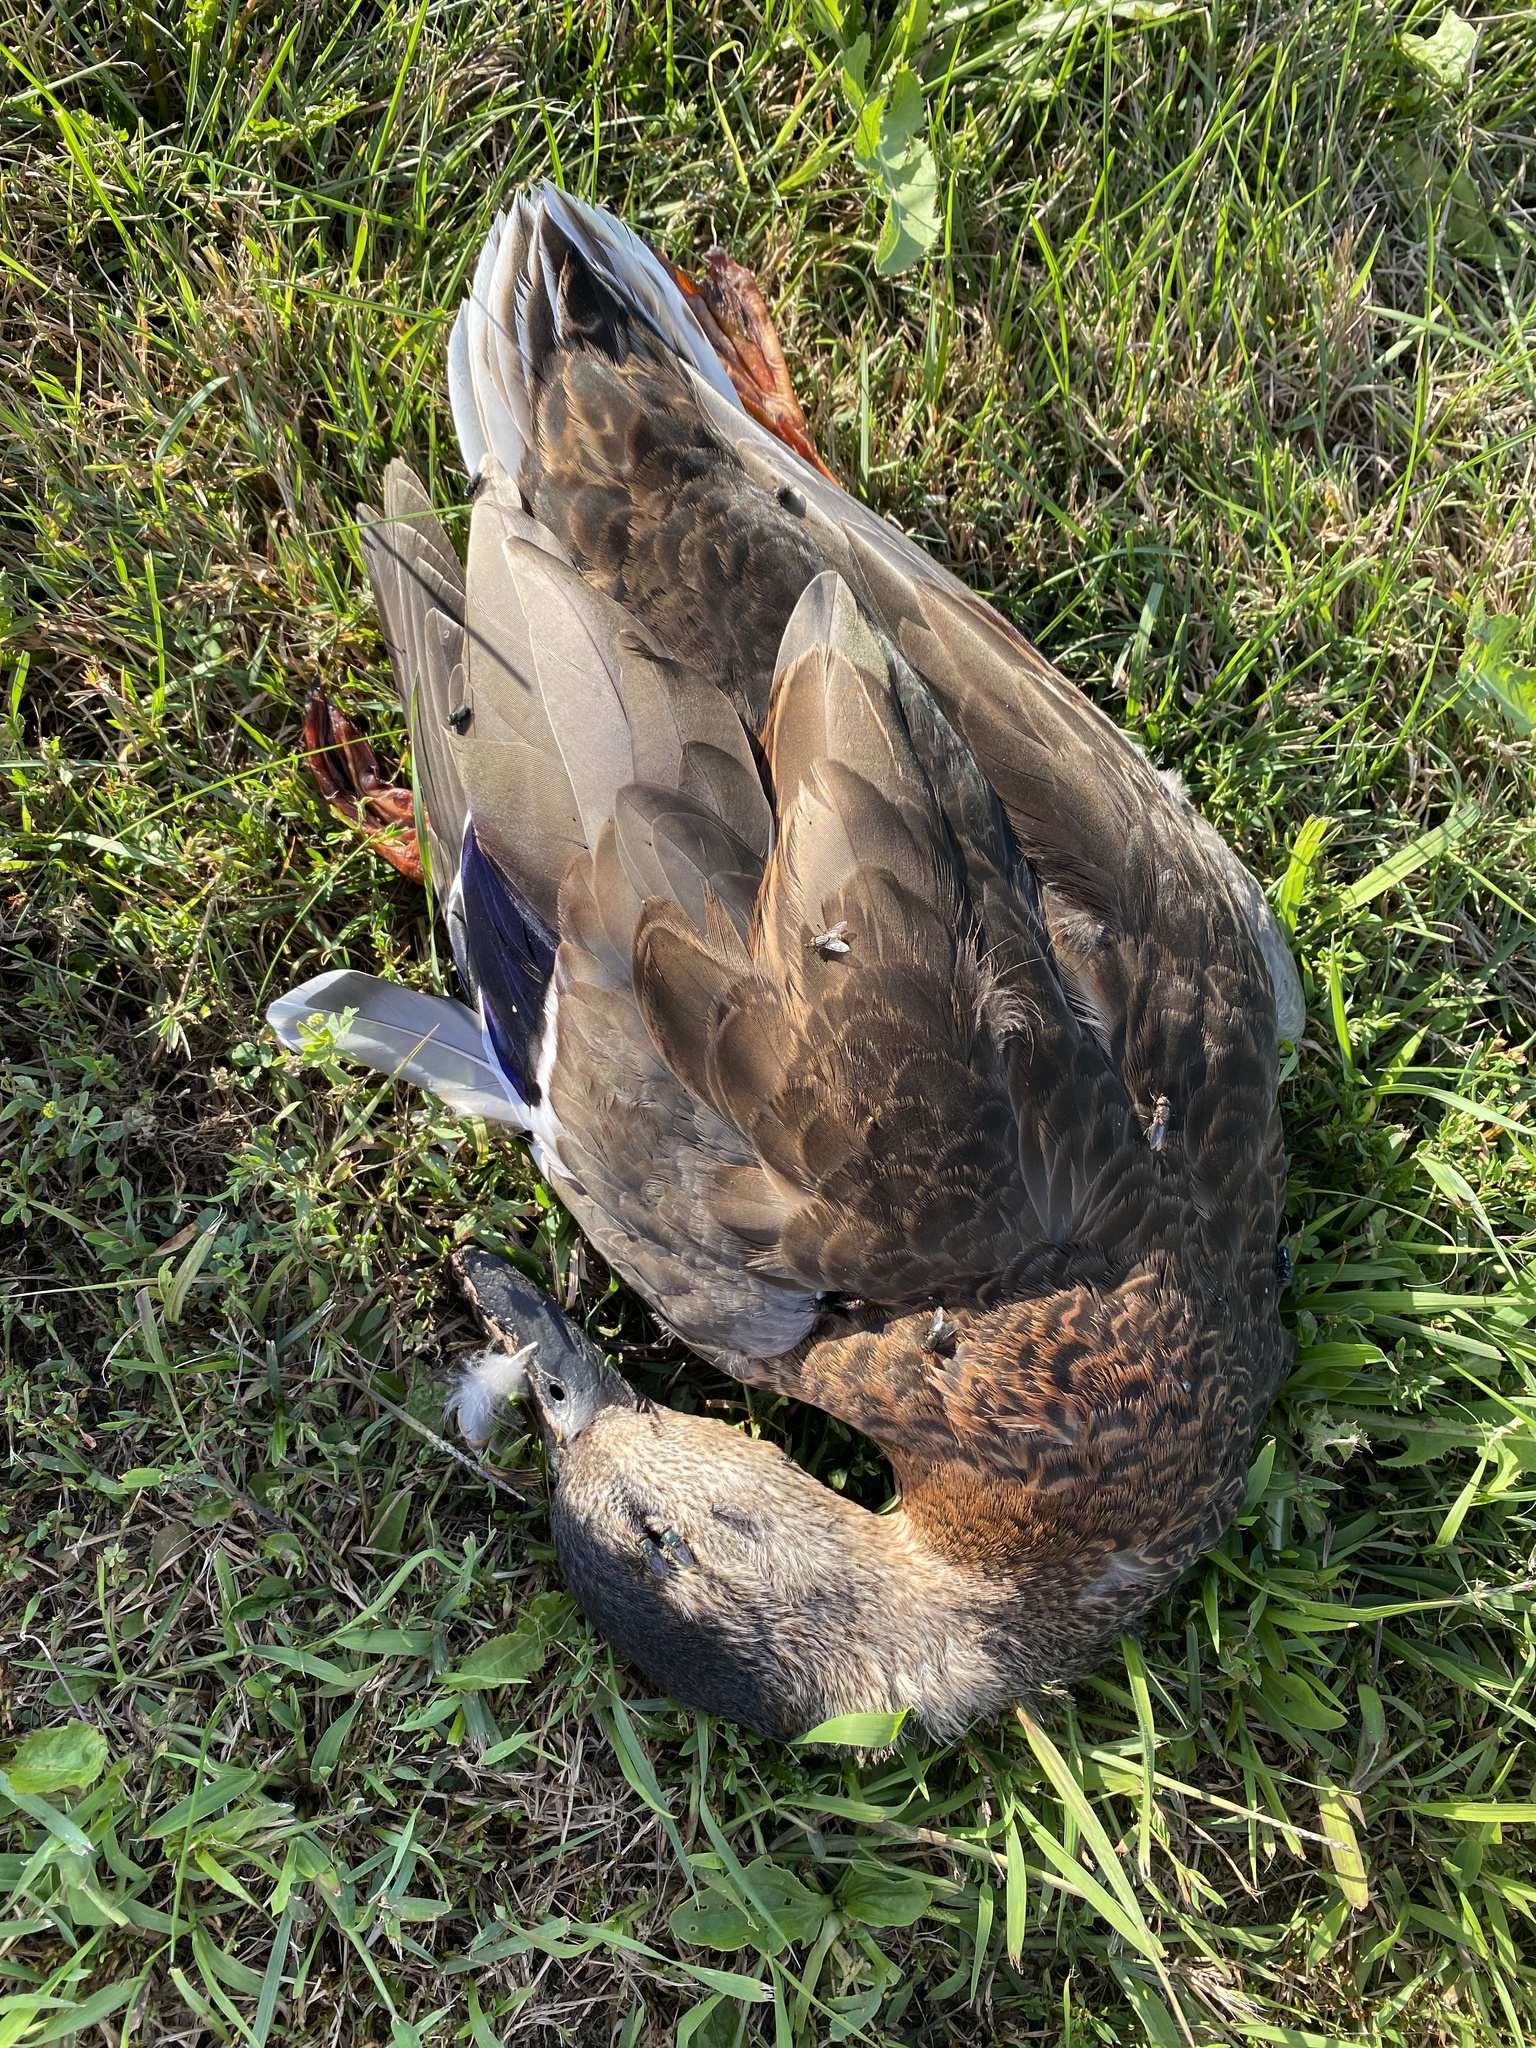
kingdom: Animalia
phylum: Chordata
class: Aves
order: Anseriformes
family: Anatidae
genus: Anas
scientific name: Anas platyrhynchos
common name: Mallard
